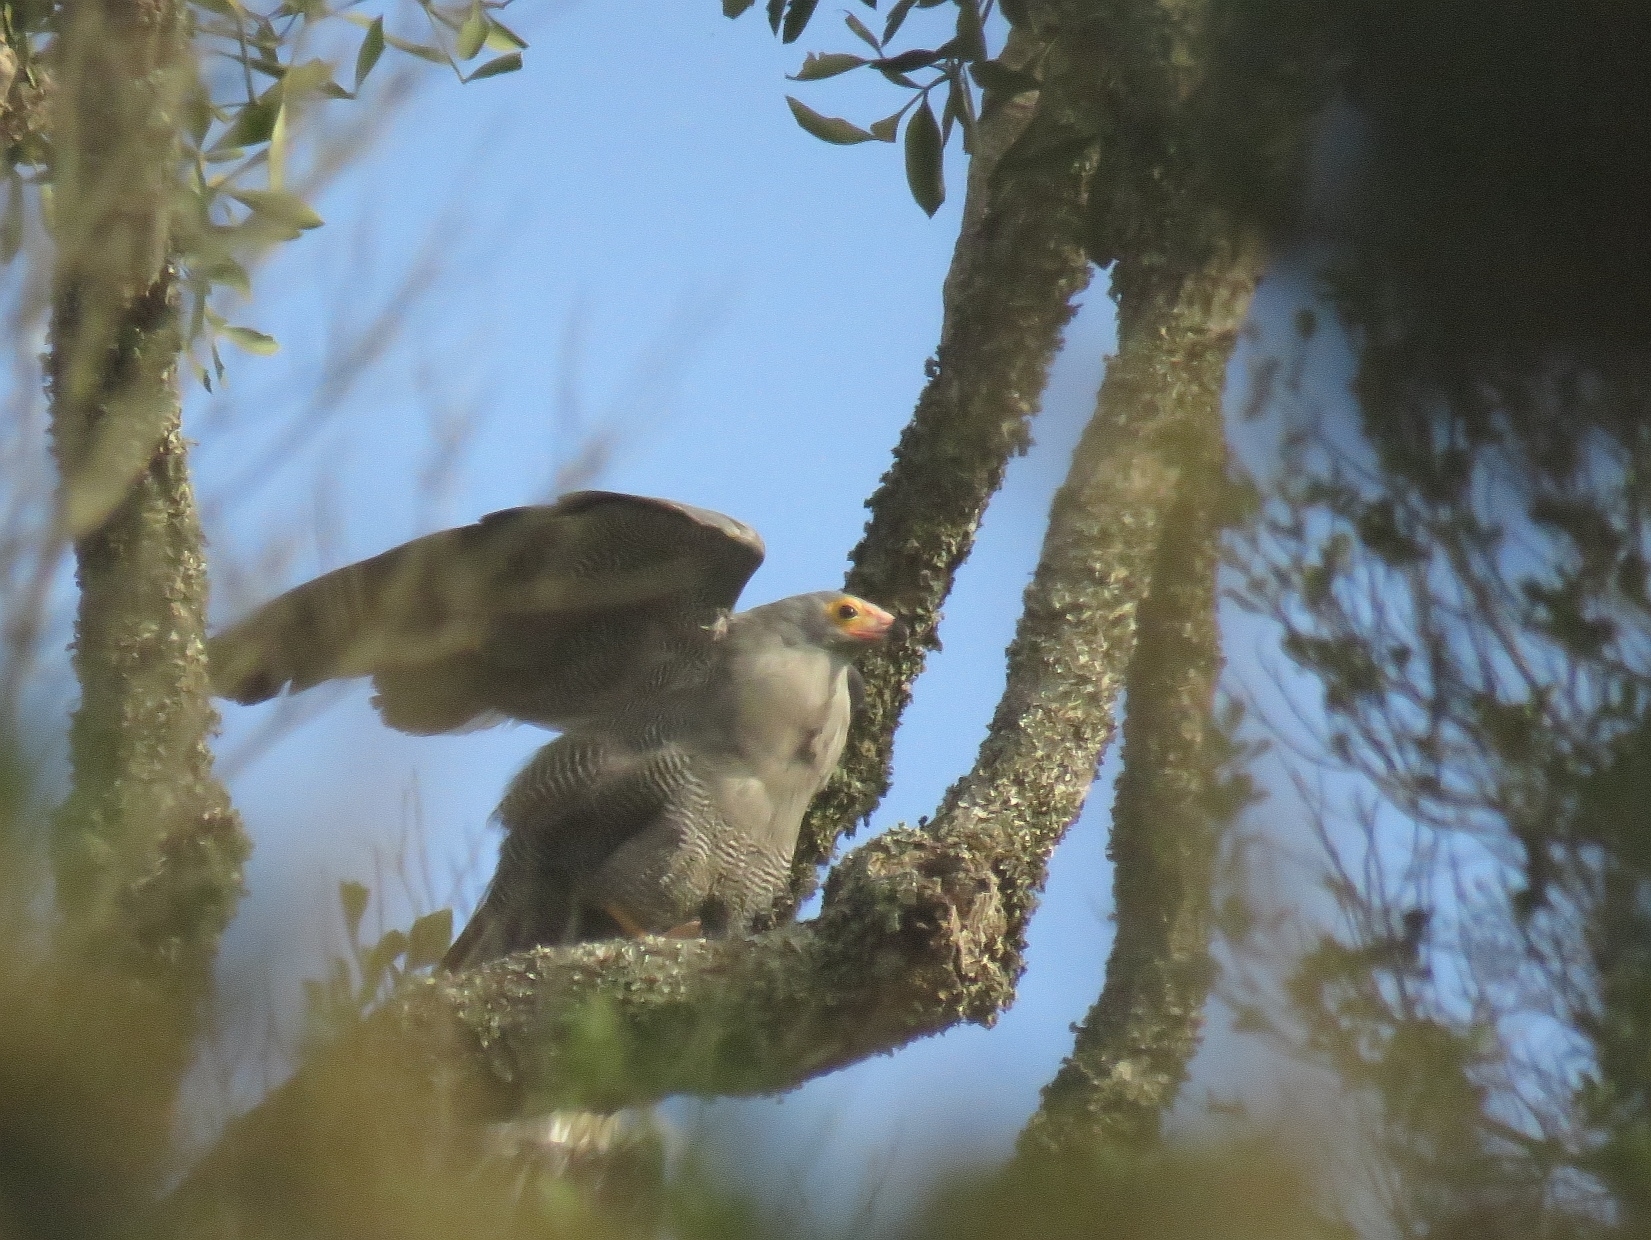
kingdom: Animalia
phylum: Chordata
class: Aves
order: Accipitriformes
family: Accipitridae
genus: Polyboroides
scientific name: Polyboroides typus
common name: African harrier-hawk
